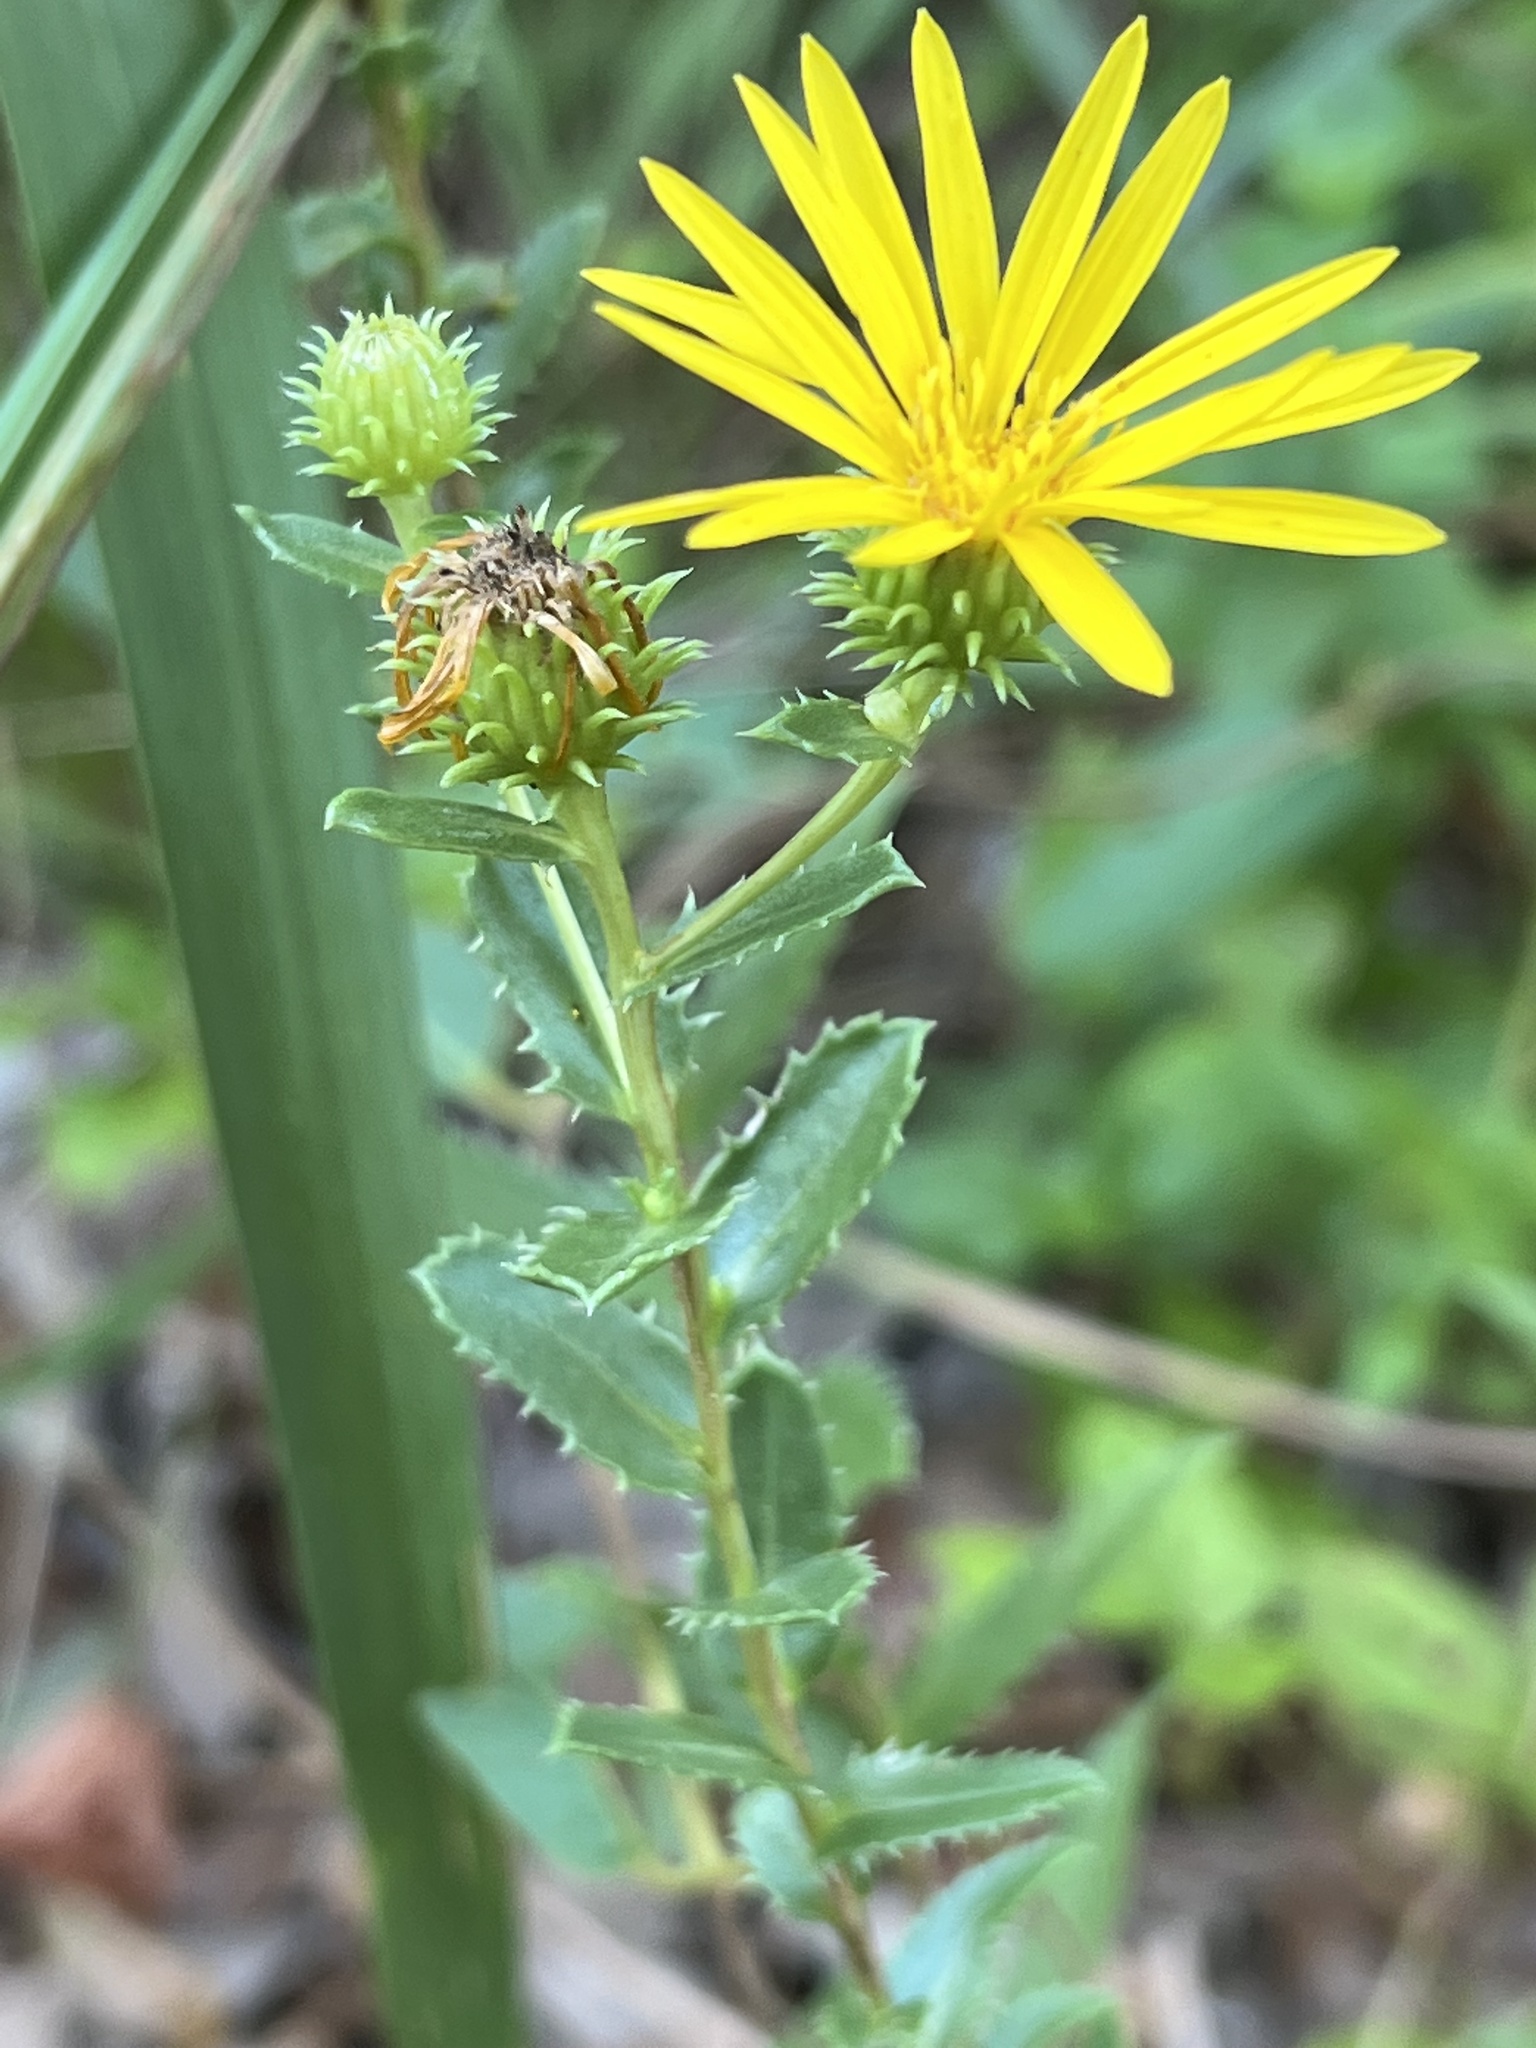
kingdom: Plantae
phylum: Tracheophyta
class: Magnoliopsida
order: Asterales
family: Asteraceae
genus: Grindelia
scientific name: Grindelia lanceolata
